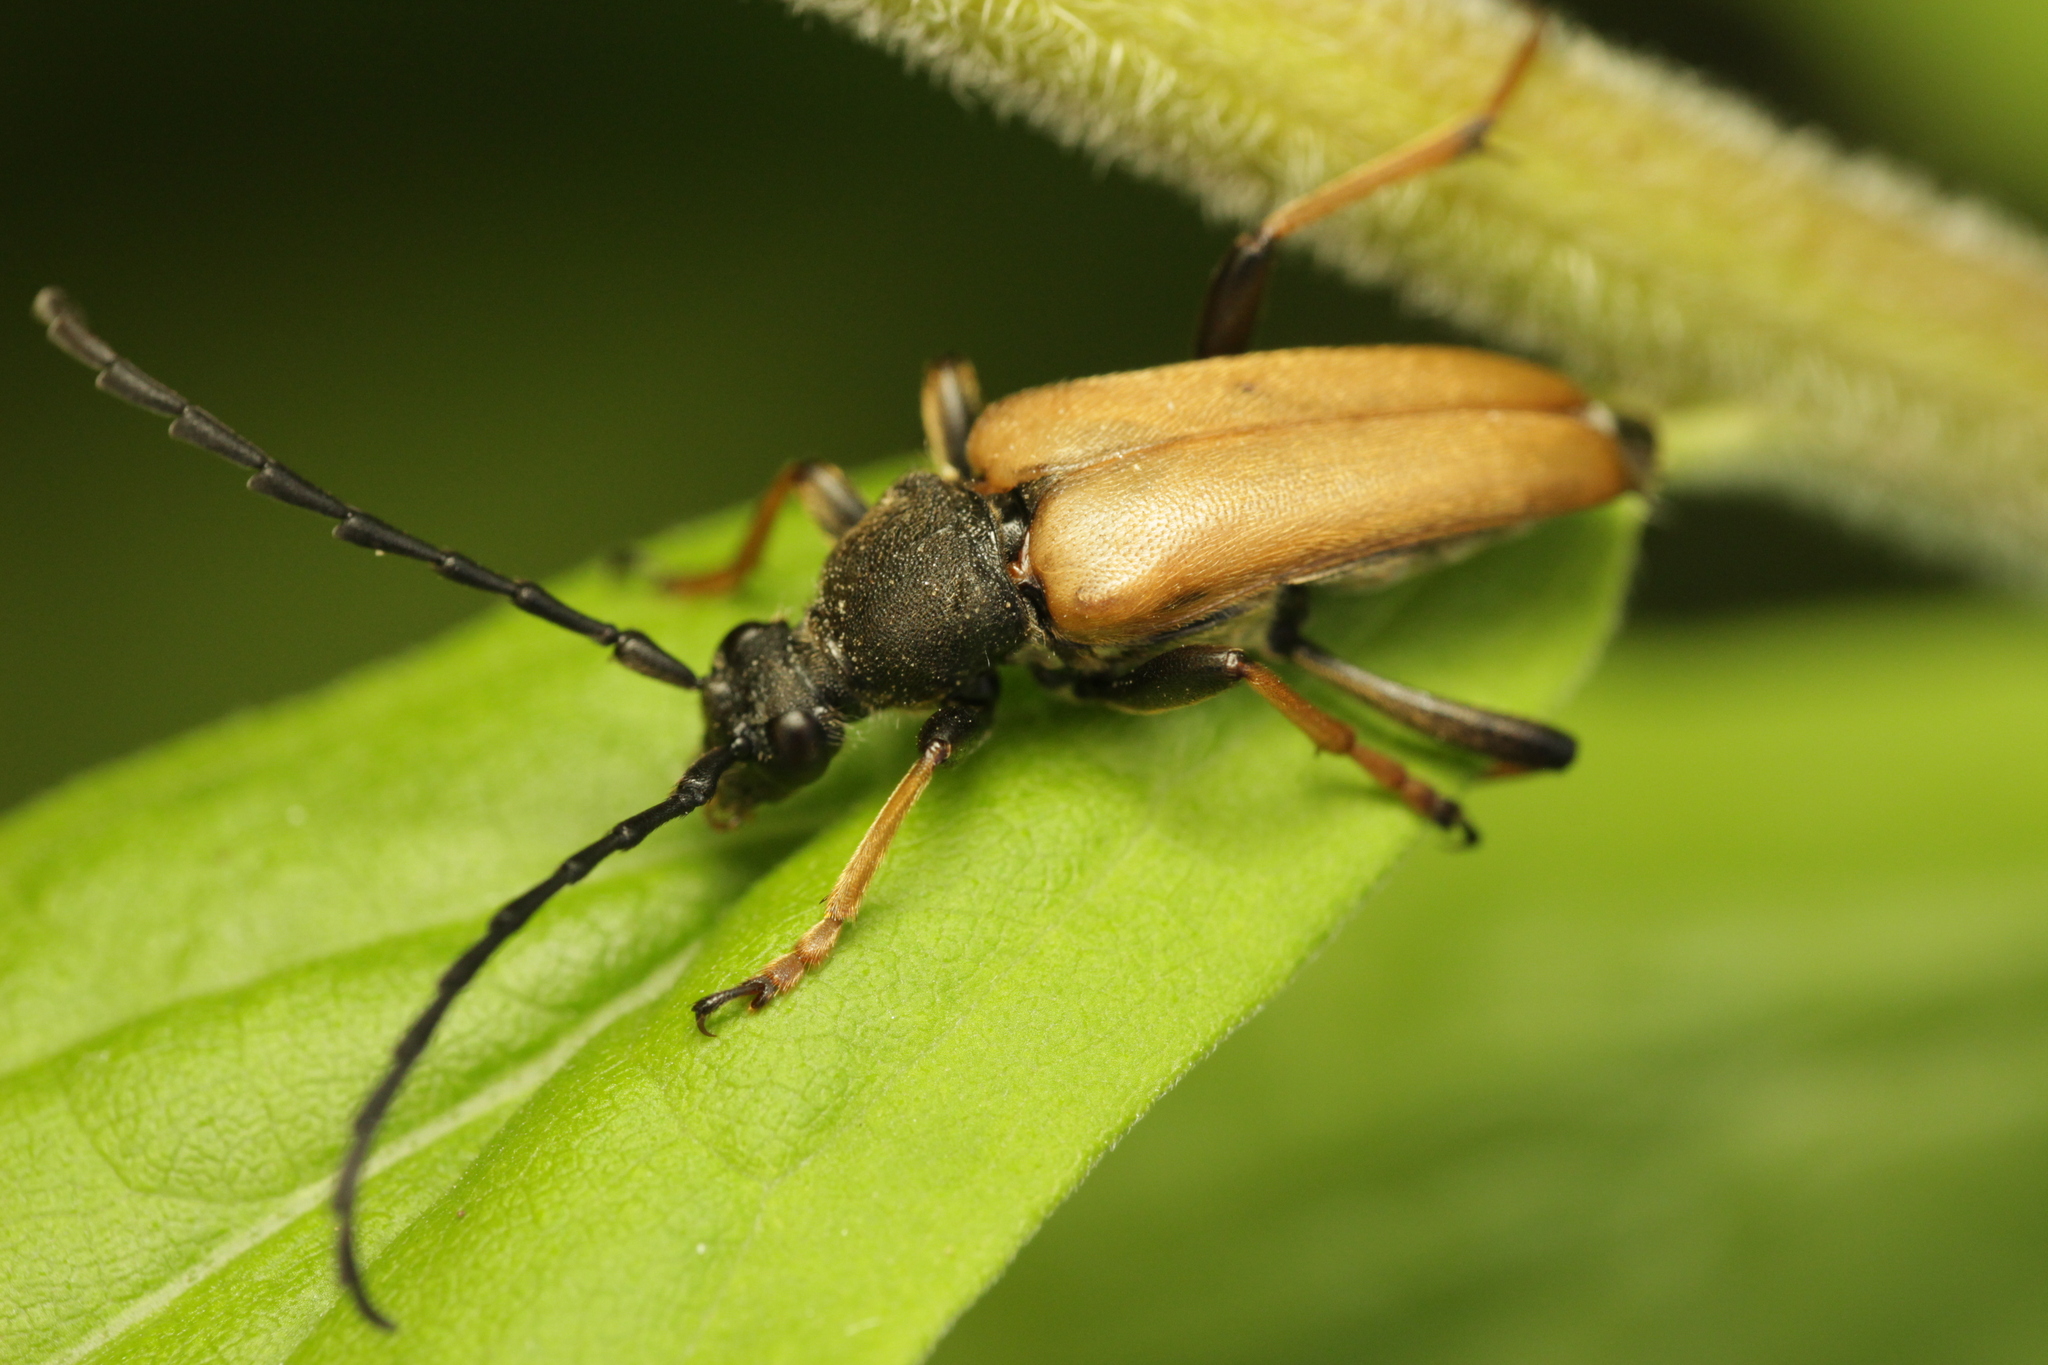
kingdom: Animalia
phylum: Arthropoda
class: Insecta
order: Coleoptera
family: Cerambycidae
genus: Stictoleptura
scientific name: Stictoleptura rubra
